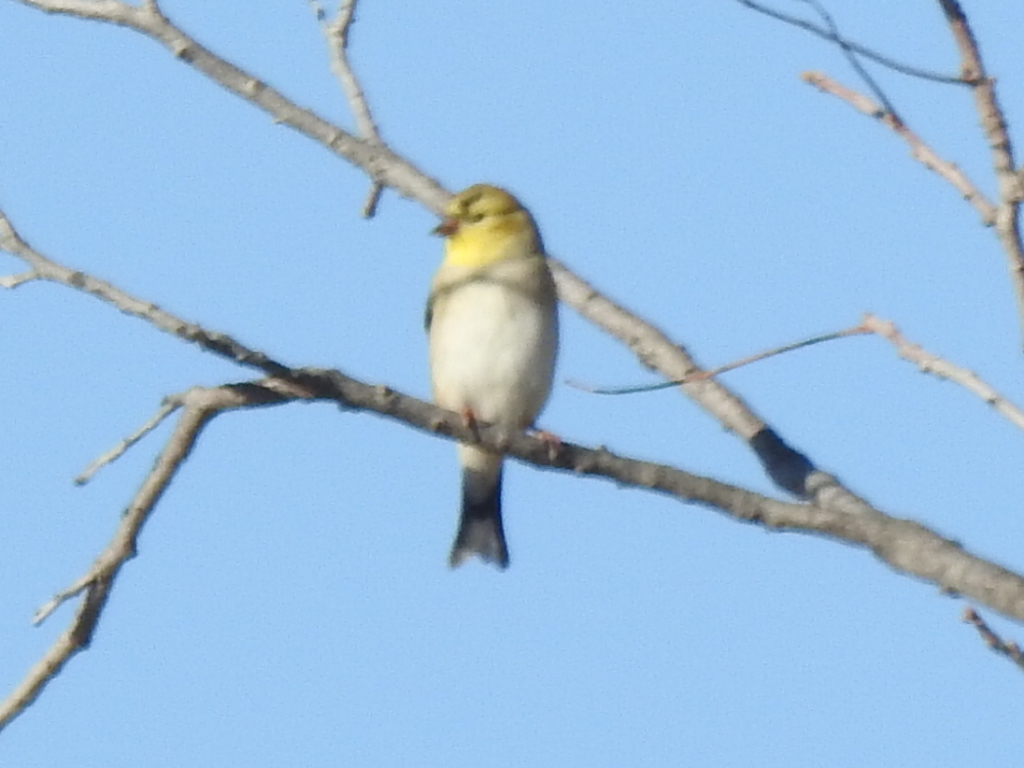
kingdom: Animalia
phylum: Chordata
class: Aves
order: Passeriformes
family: Fringillidae
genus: Spinus
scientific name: Spinus tristis
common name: American goldfinch
